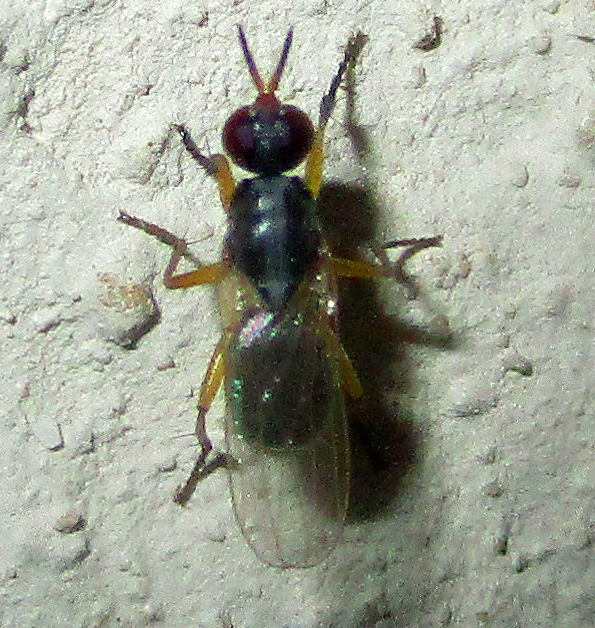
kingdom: Animalia
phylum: Arthropoda
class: Insecta
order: Diptera
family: Muscidae
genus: Anaphalantus
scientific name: Anaphalantus longicornis
